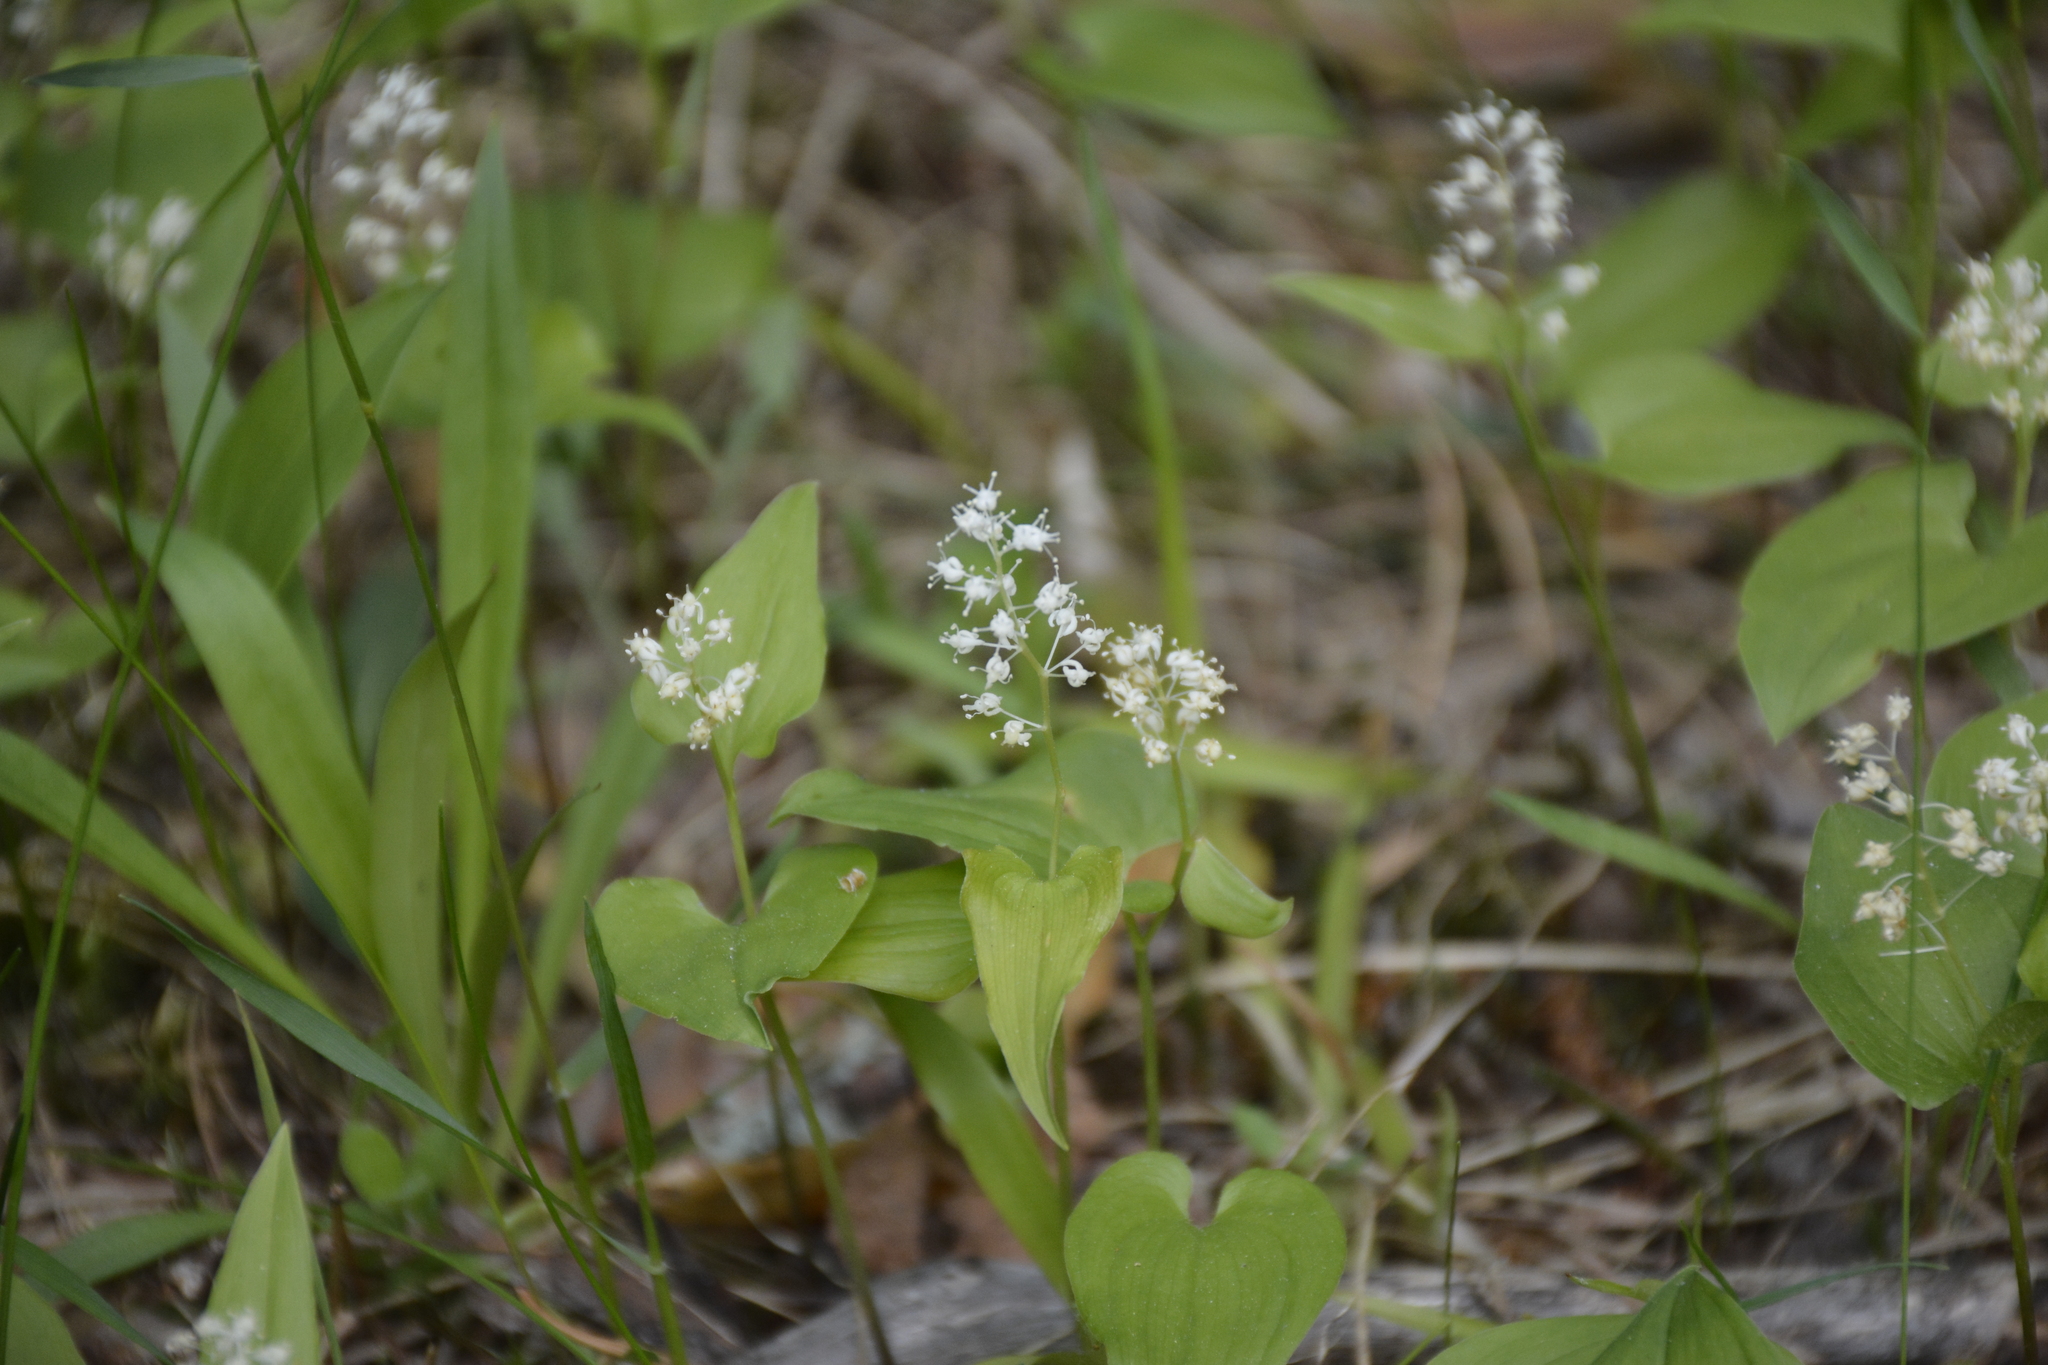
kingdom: Plantae
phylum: Tracheophyta
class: Liliopsida
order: Asparagales
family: Asparagaceae
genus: Maianthemum
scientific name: Maianthemum bifolium
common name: May lily
